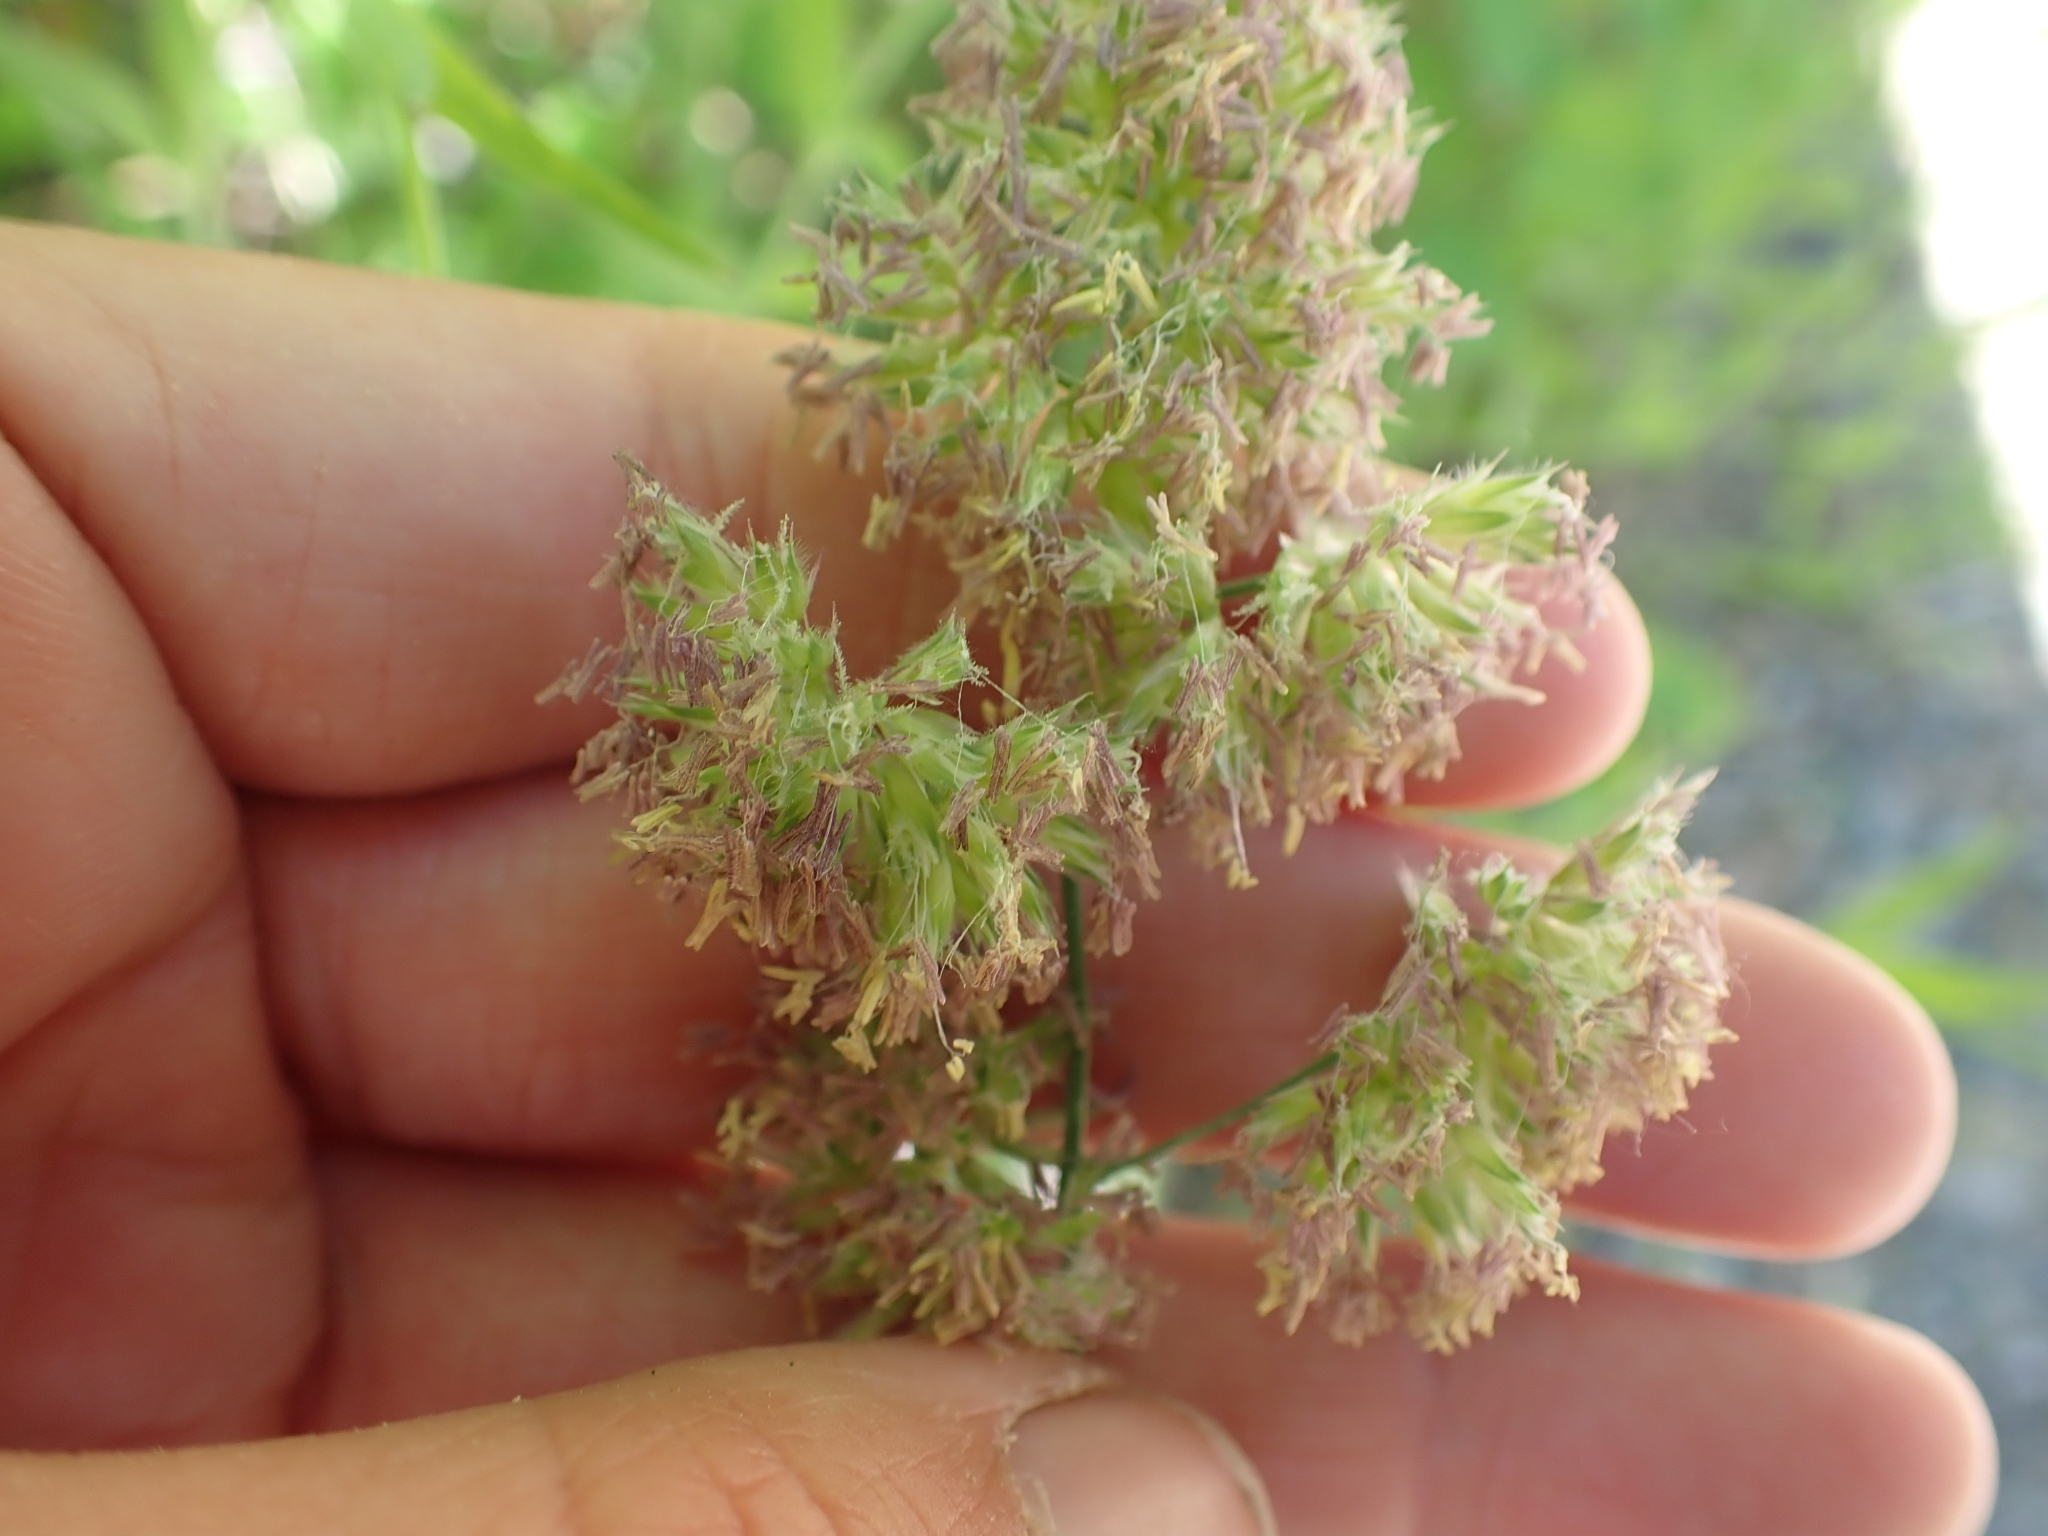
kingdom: Plantae
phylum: Tracheophyta
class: Liliopsida
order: Poales
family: Poaceae
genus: Dactylis
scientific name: Dactylis glomerata
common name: Orchardgrass
